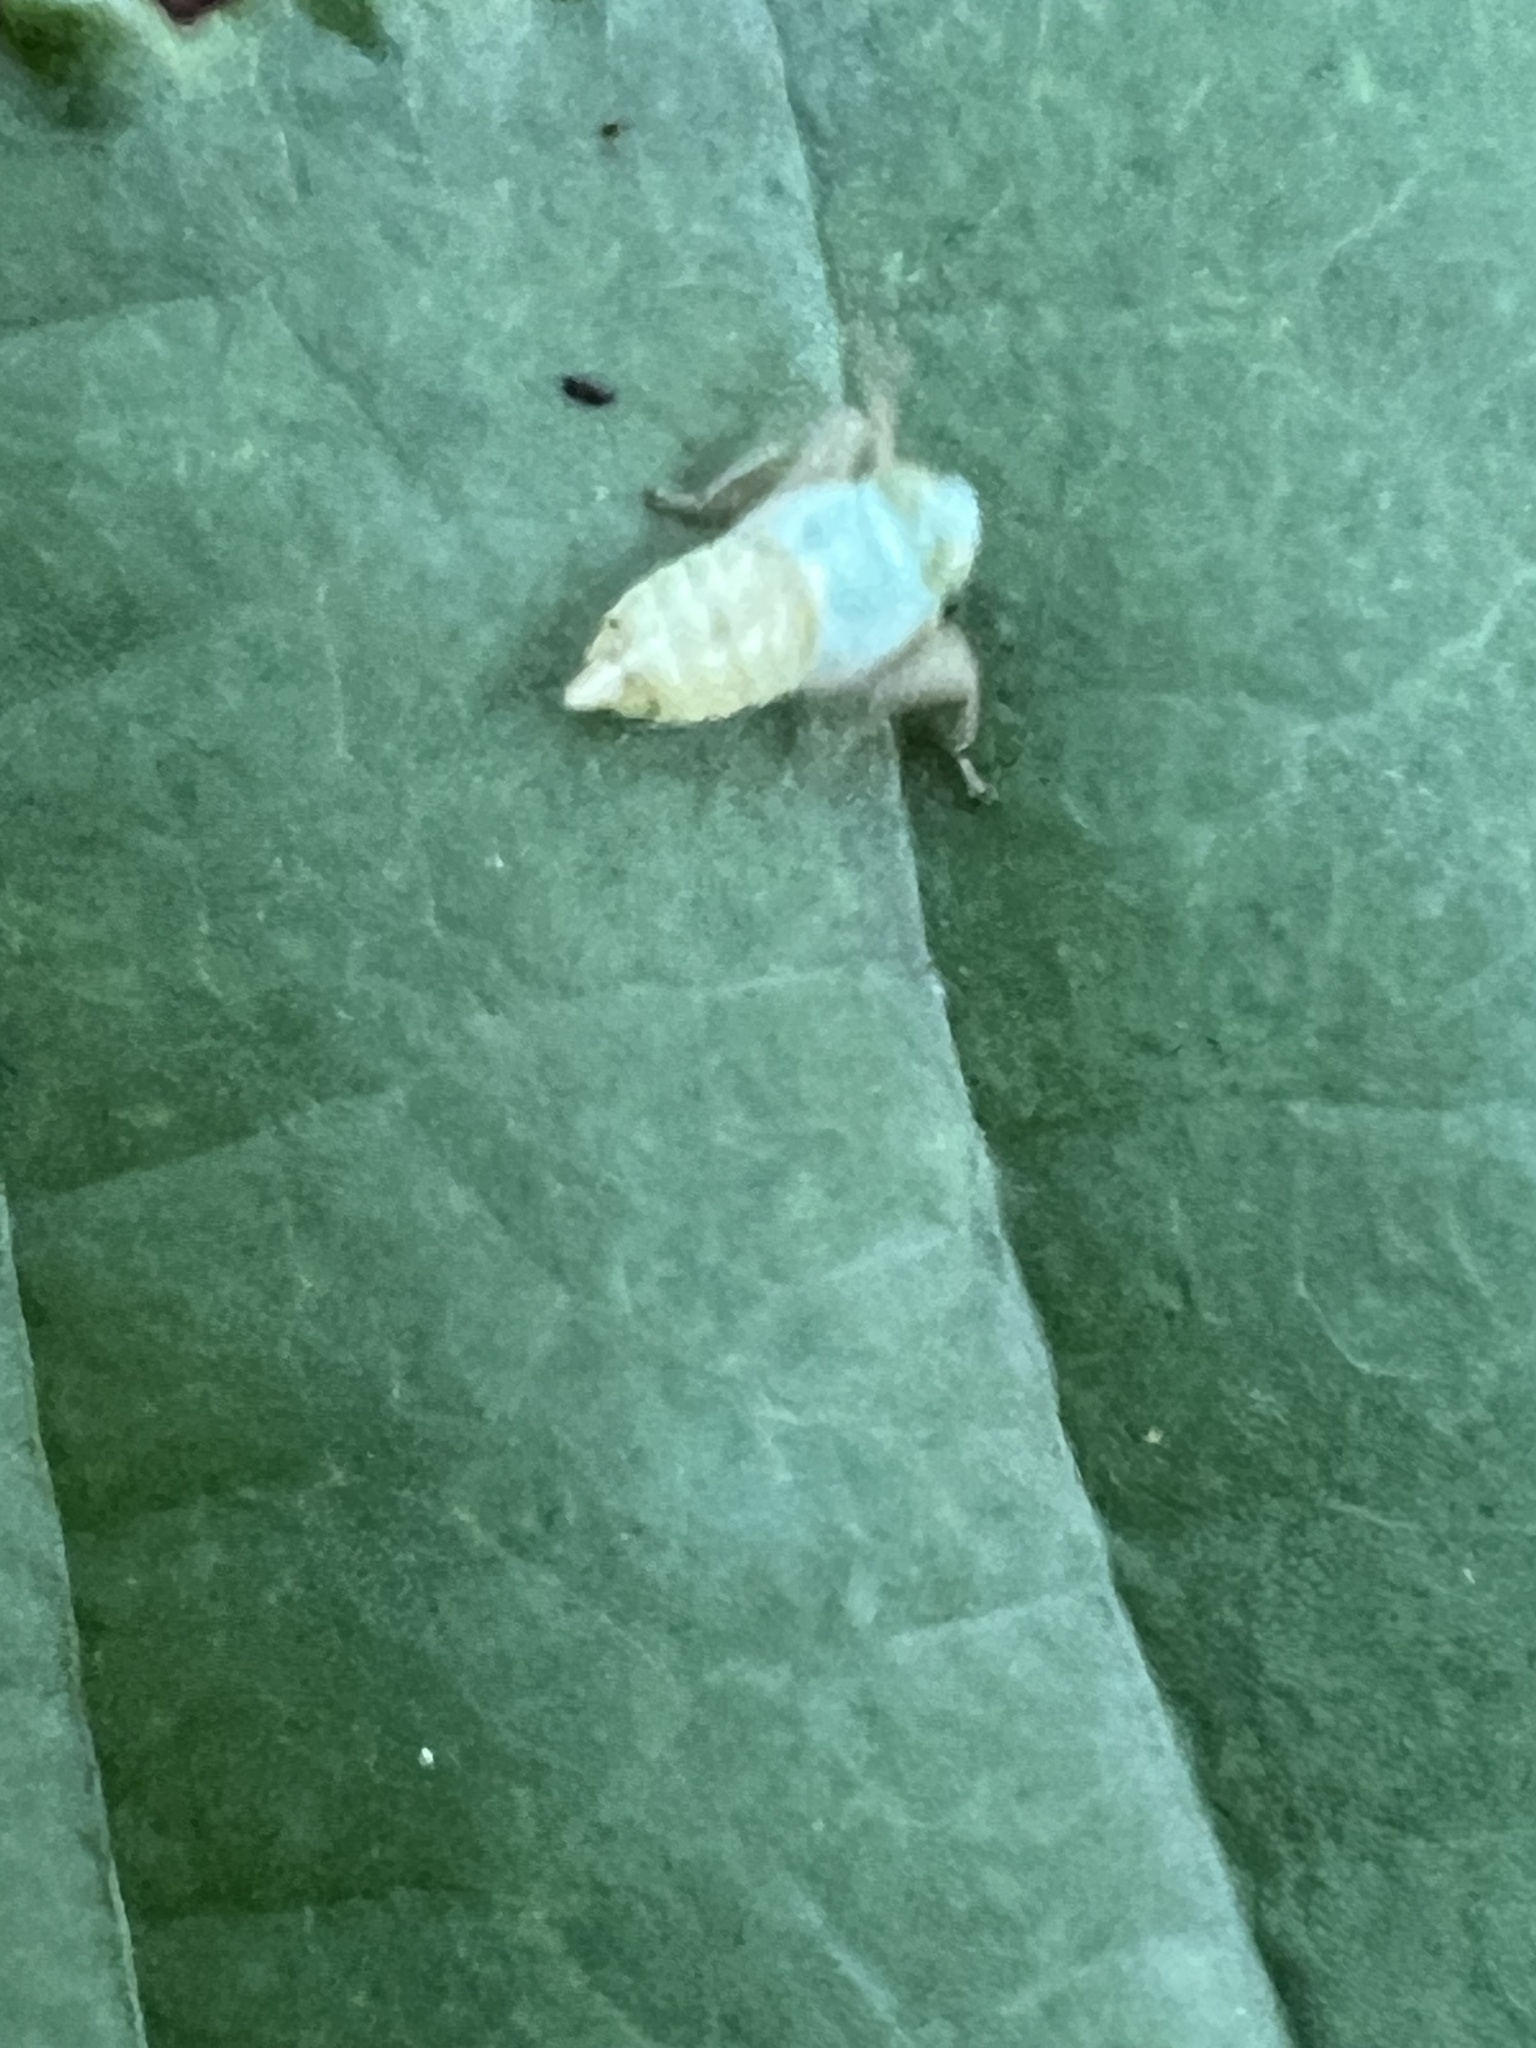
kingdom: Animalia
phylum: Arthropoda
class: Insecta
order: Hemiptera
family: Cicadellidae
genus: Jikradia
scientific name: Jikradia olitoria
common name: Coppery leafhopper
